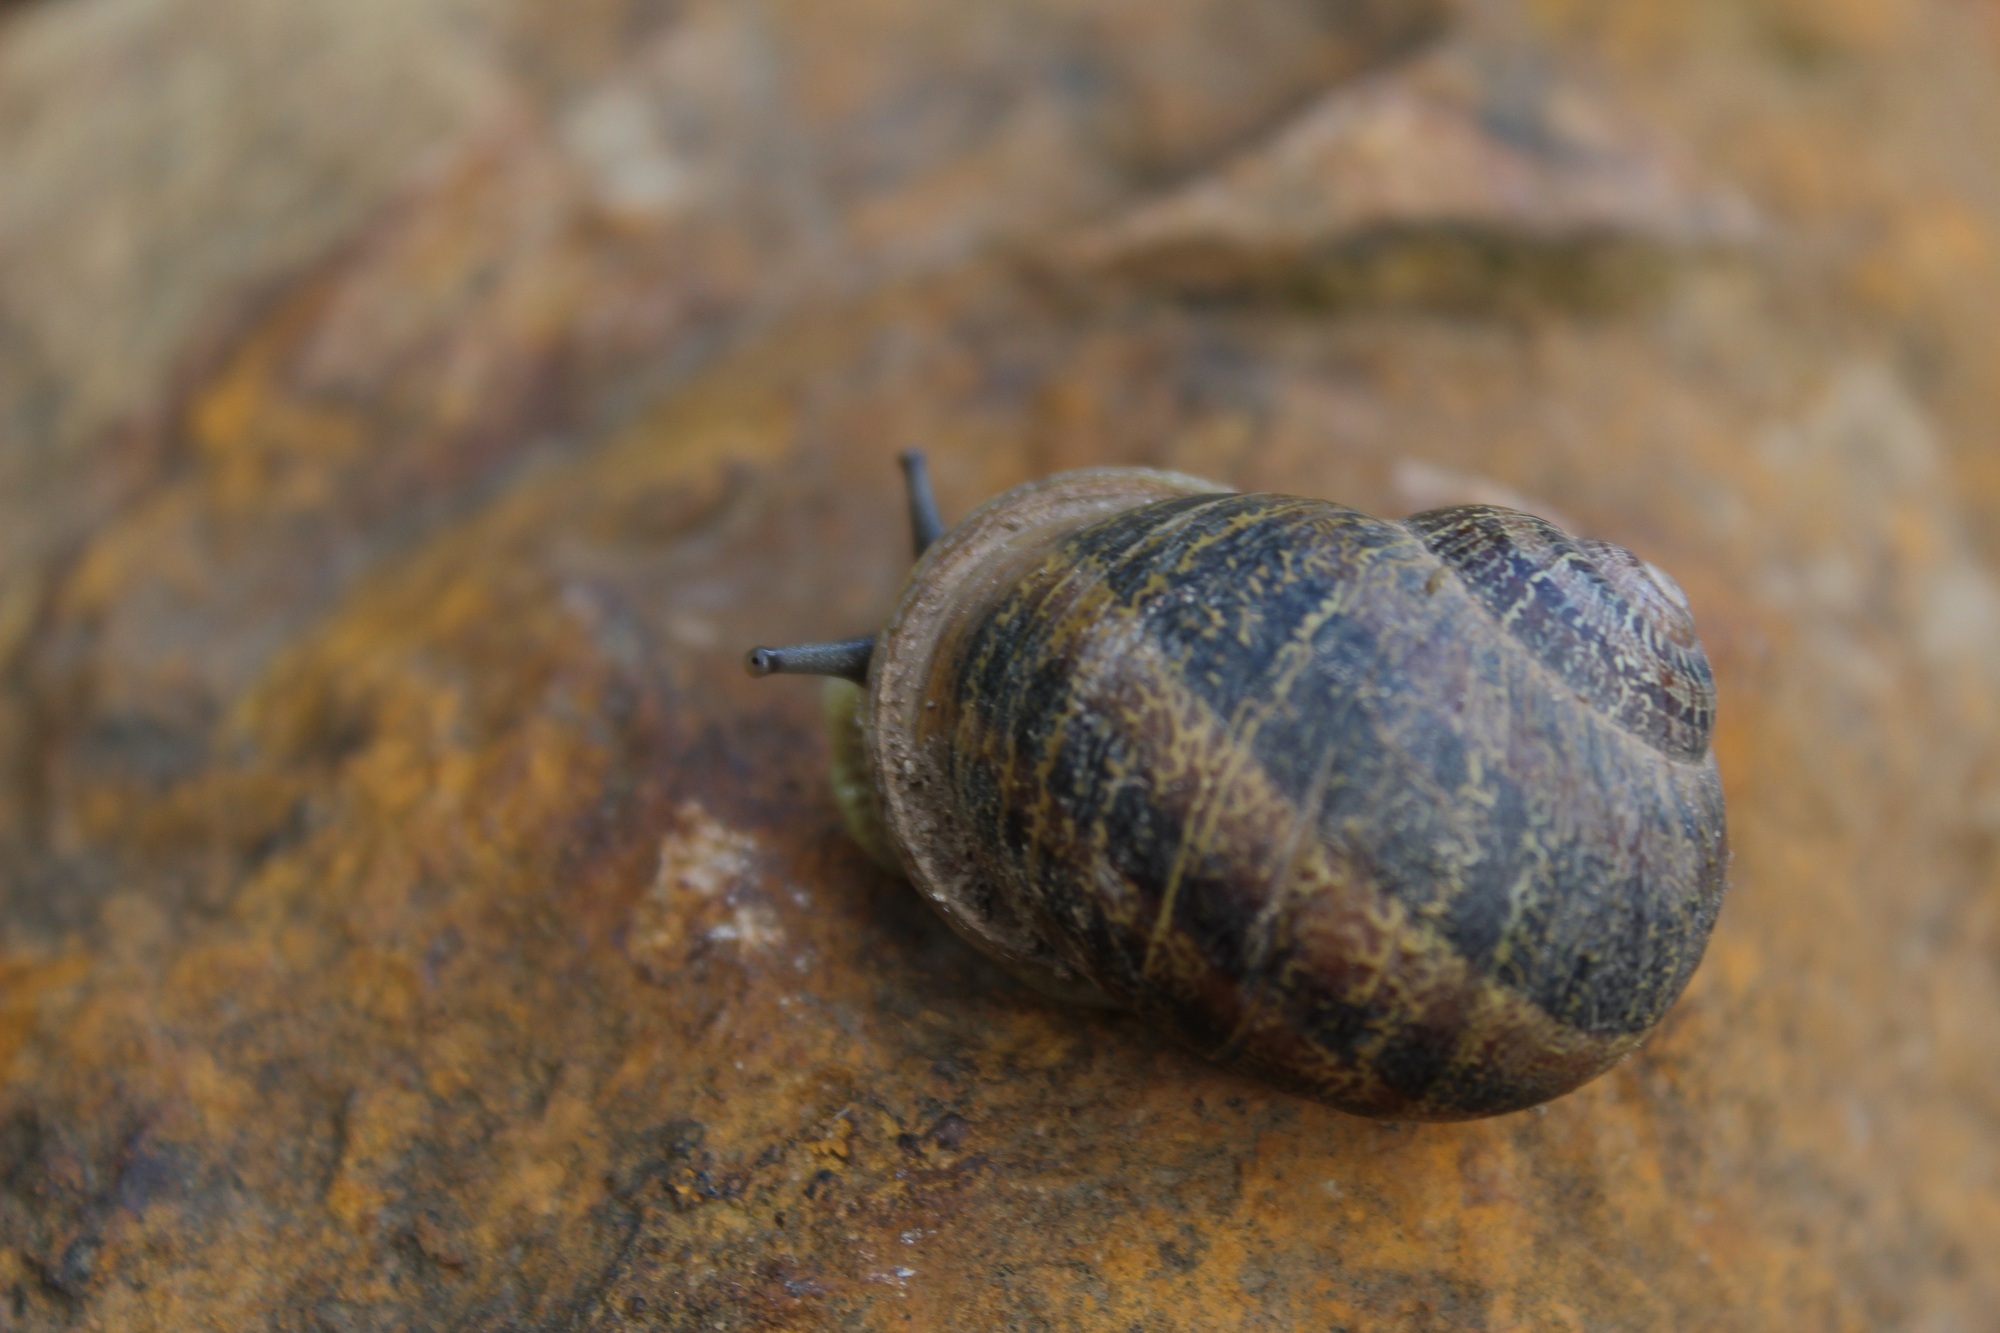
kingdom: Animalia
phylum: Mollusca
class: Gastropoda
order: Stylommatophora
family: Helicidae
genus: Cornu
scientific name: Cornu aspersum
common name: Brown garden snail
